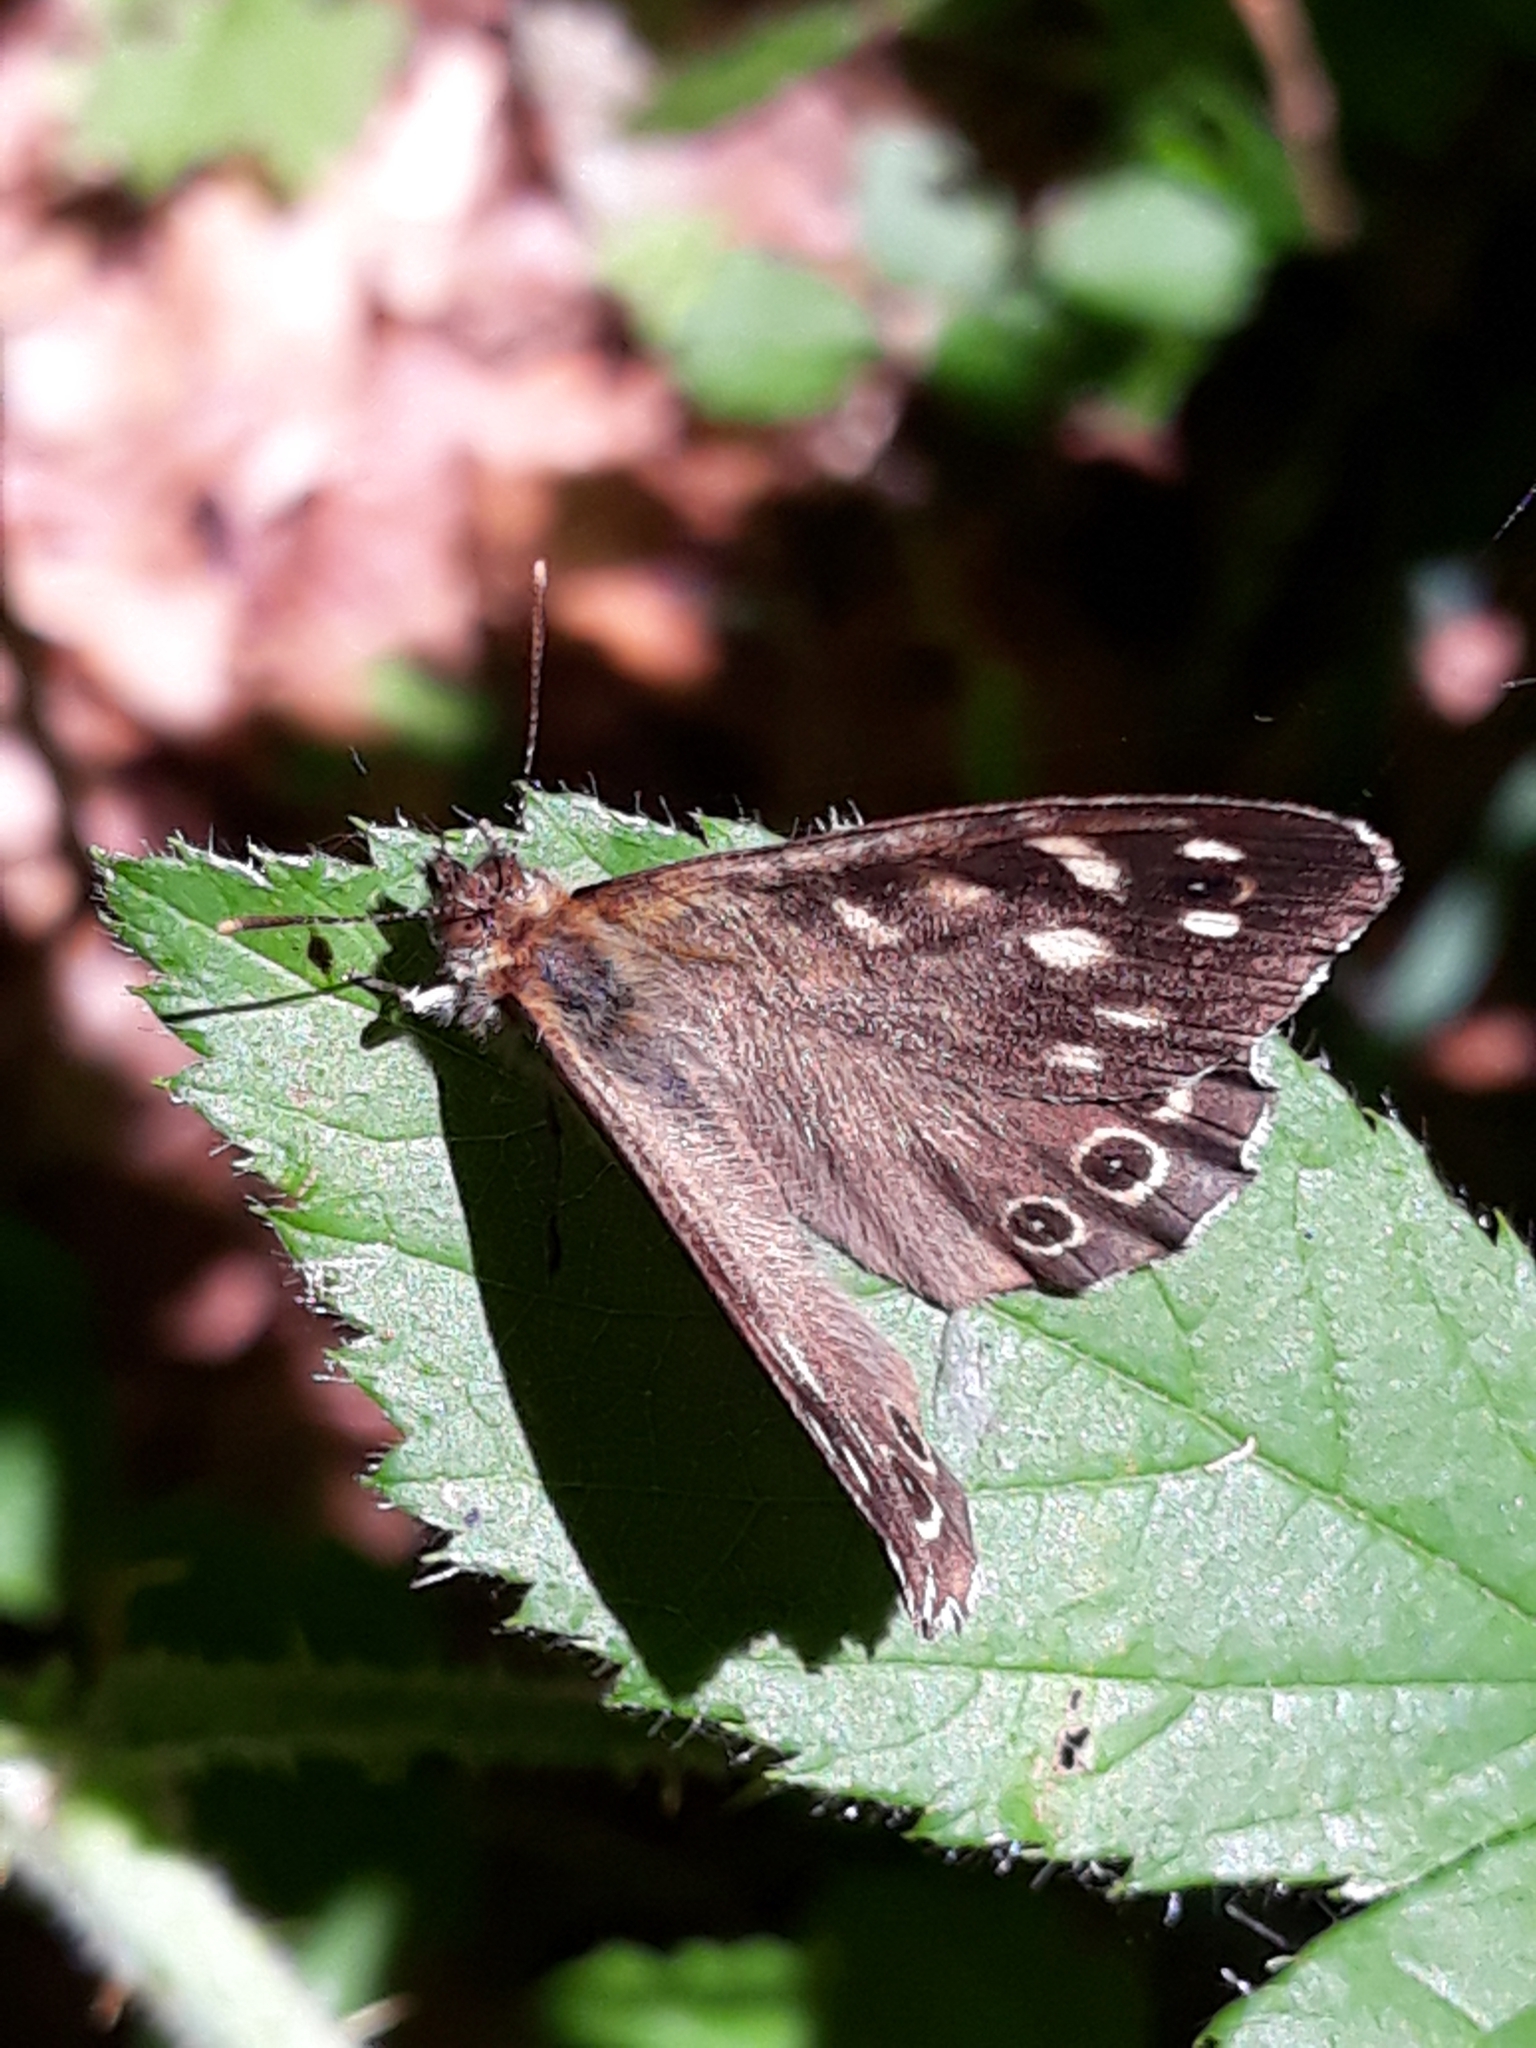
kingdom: Animalia
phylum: Arthropoda
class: Insecta
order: Lepidoptera
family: Nymphalidae
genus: Pararge
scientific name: Pararge aegeria
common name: Speckled wood
